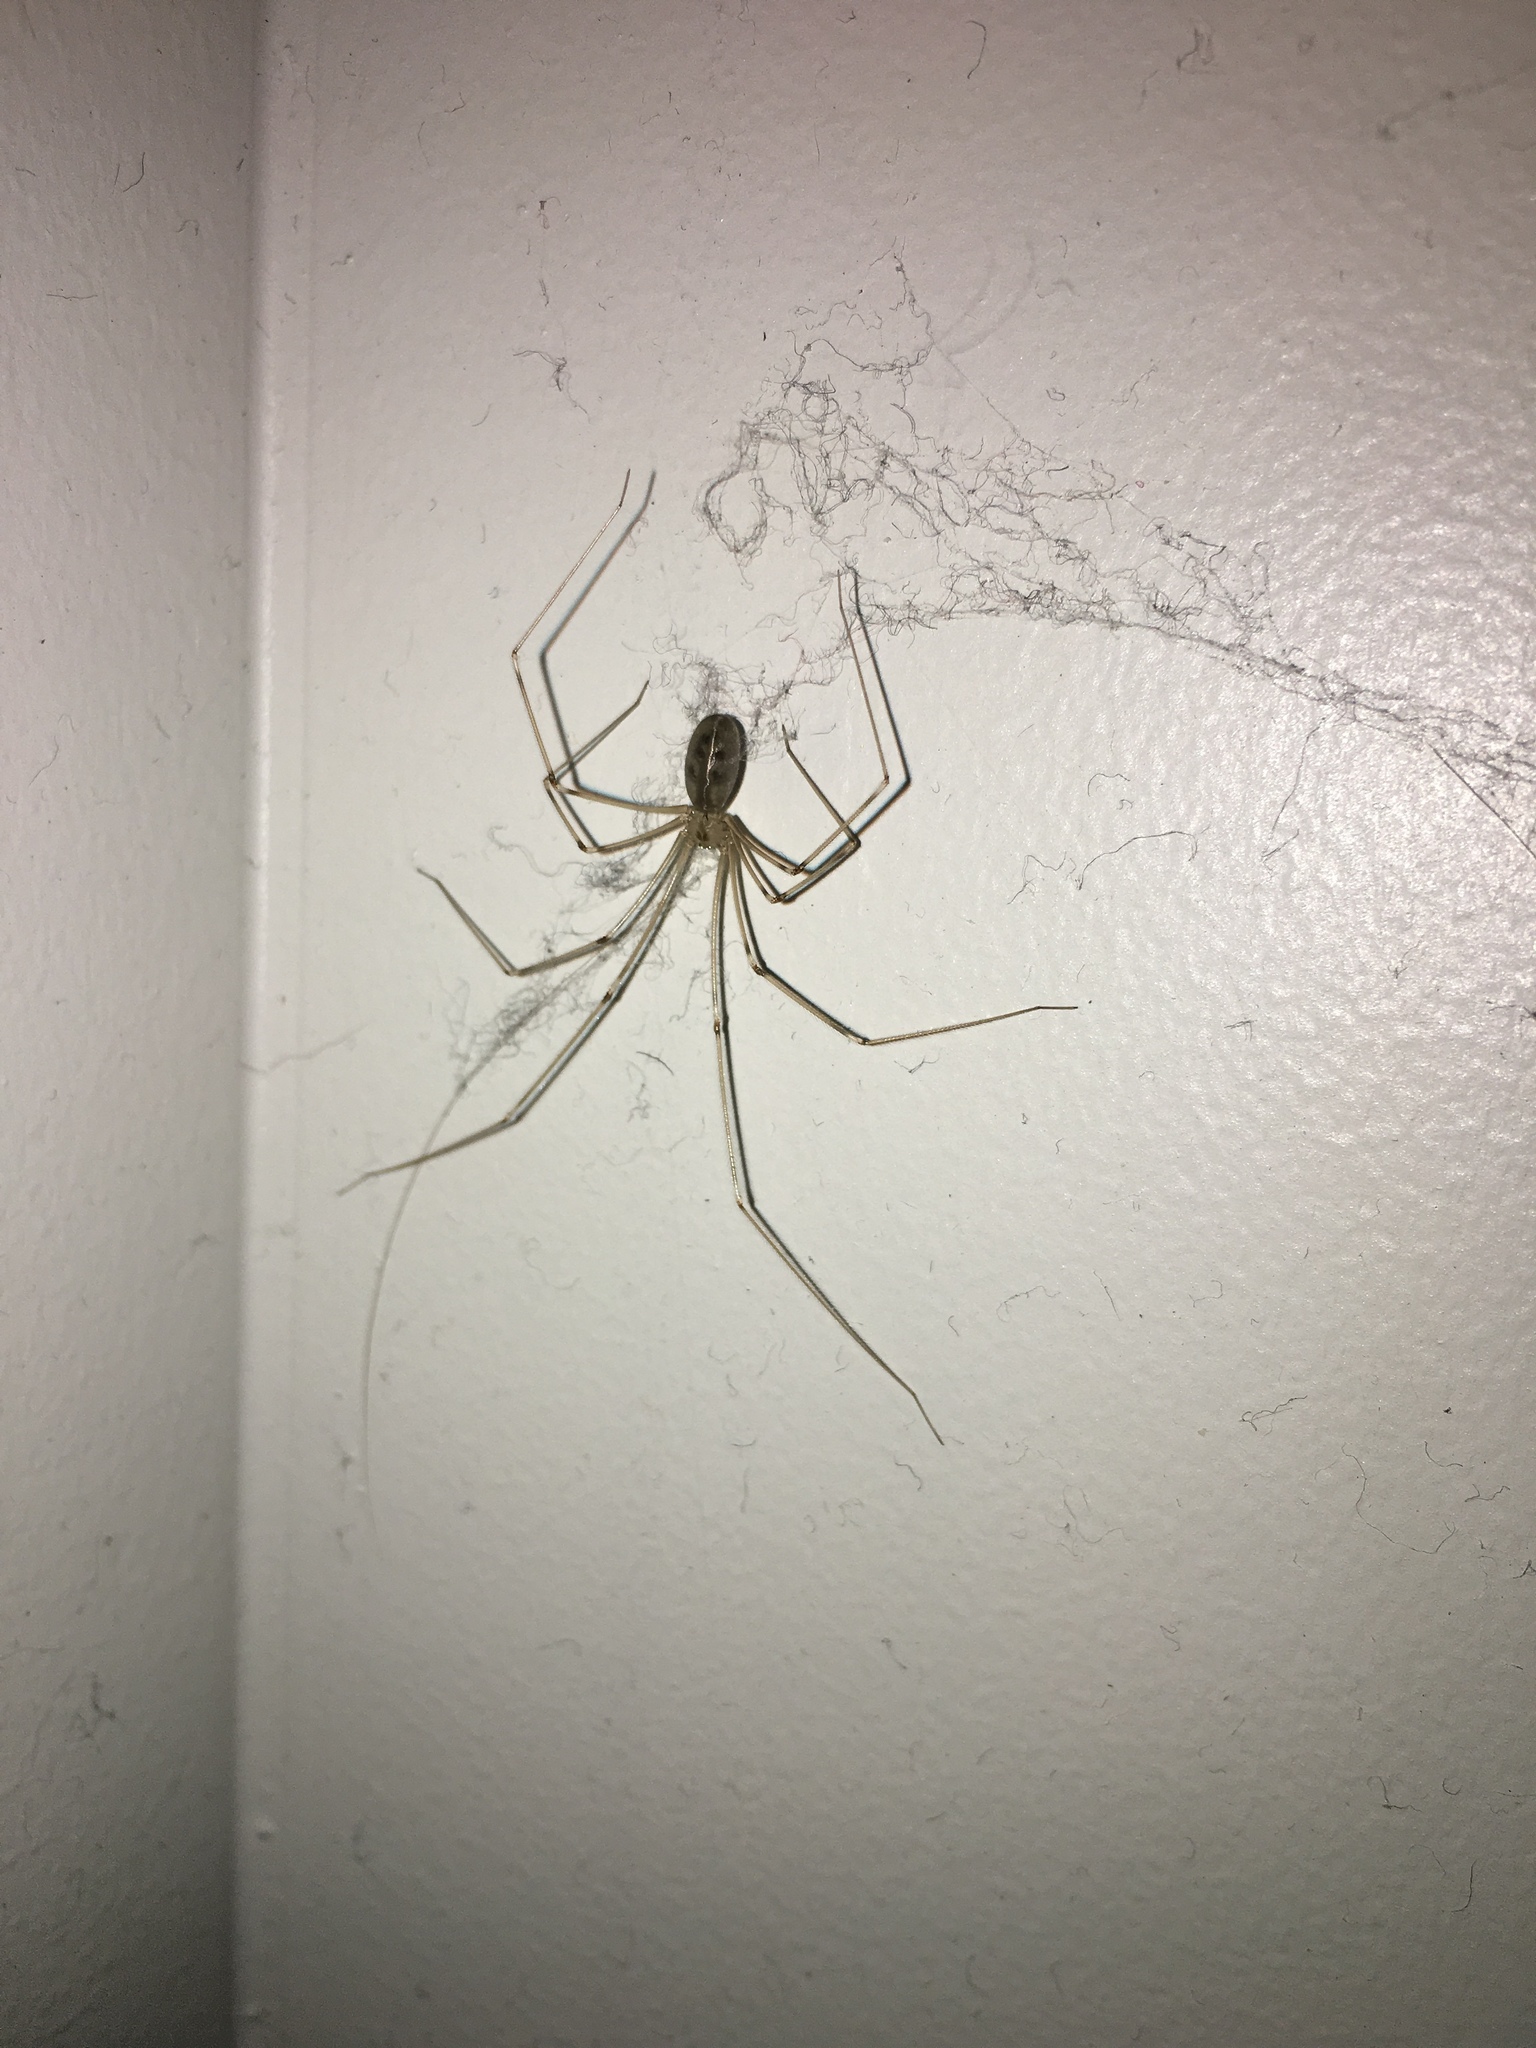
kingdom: Animalia
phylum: Arthropoda
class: Arachnida
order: Araneae
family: Pholcidae
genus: Pholcus
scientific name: Pholcus phalangioides
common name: Longbodied cellar spider
